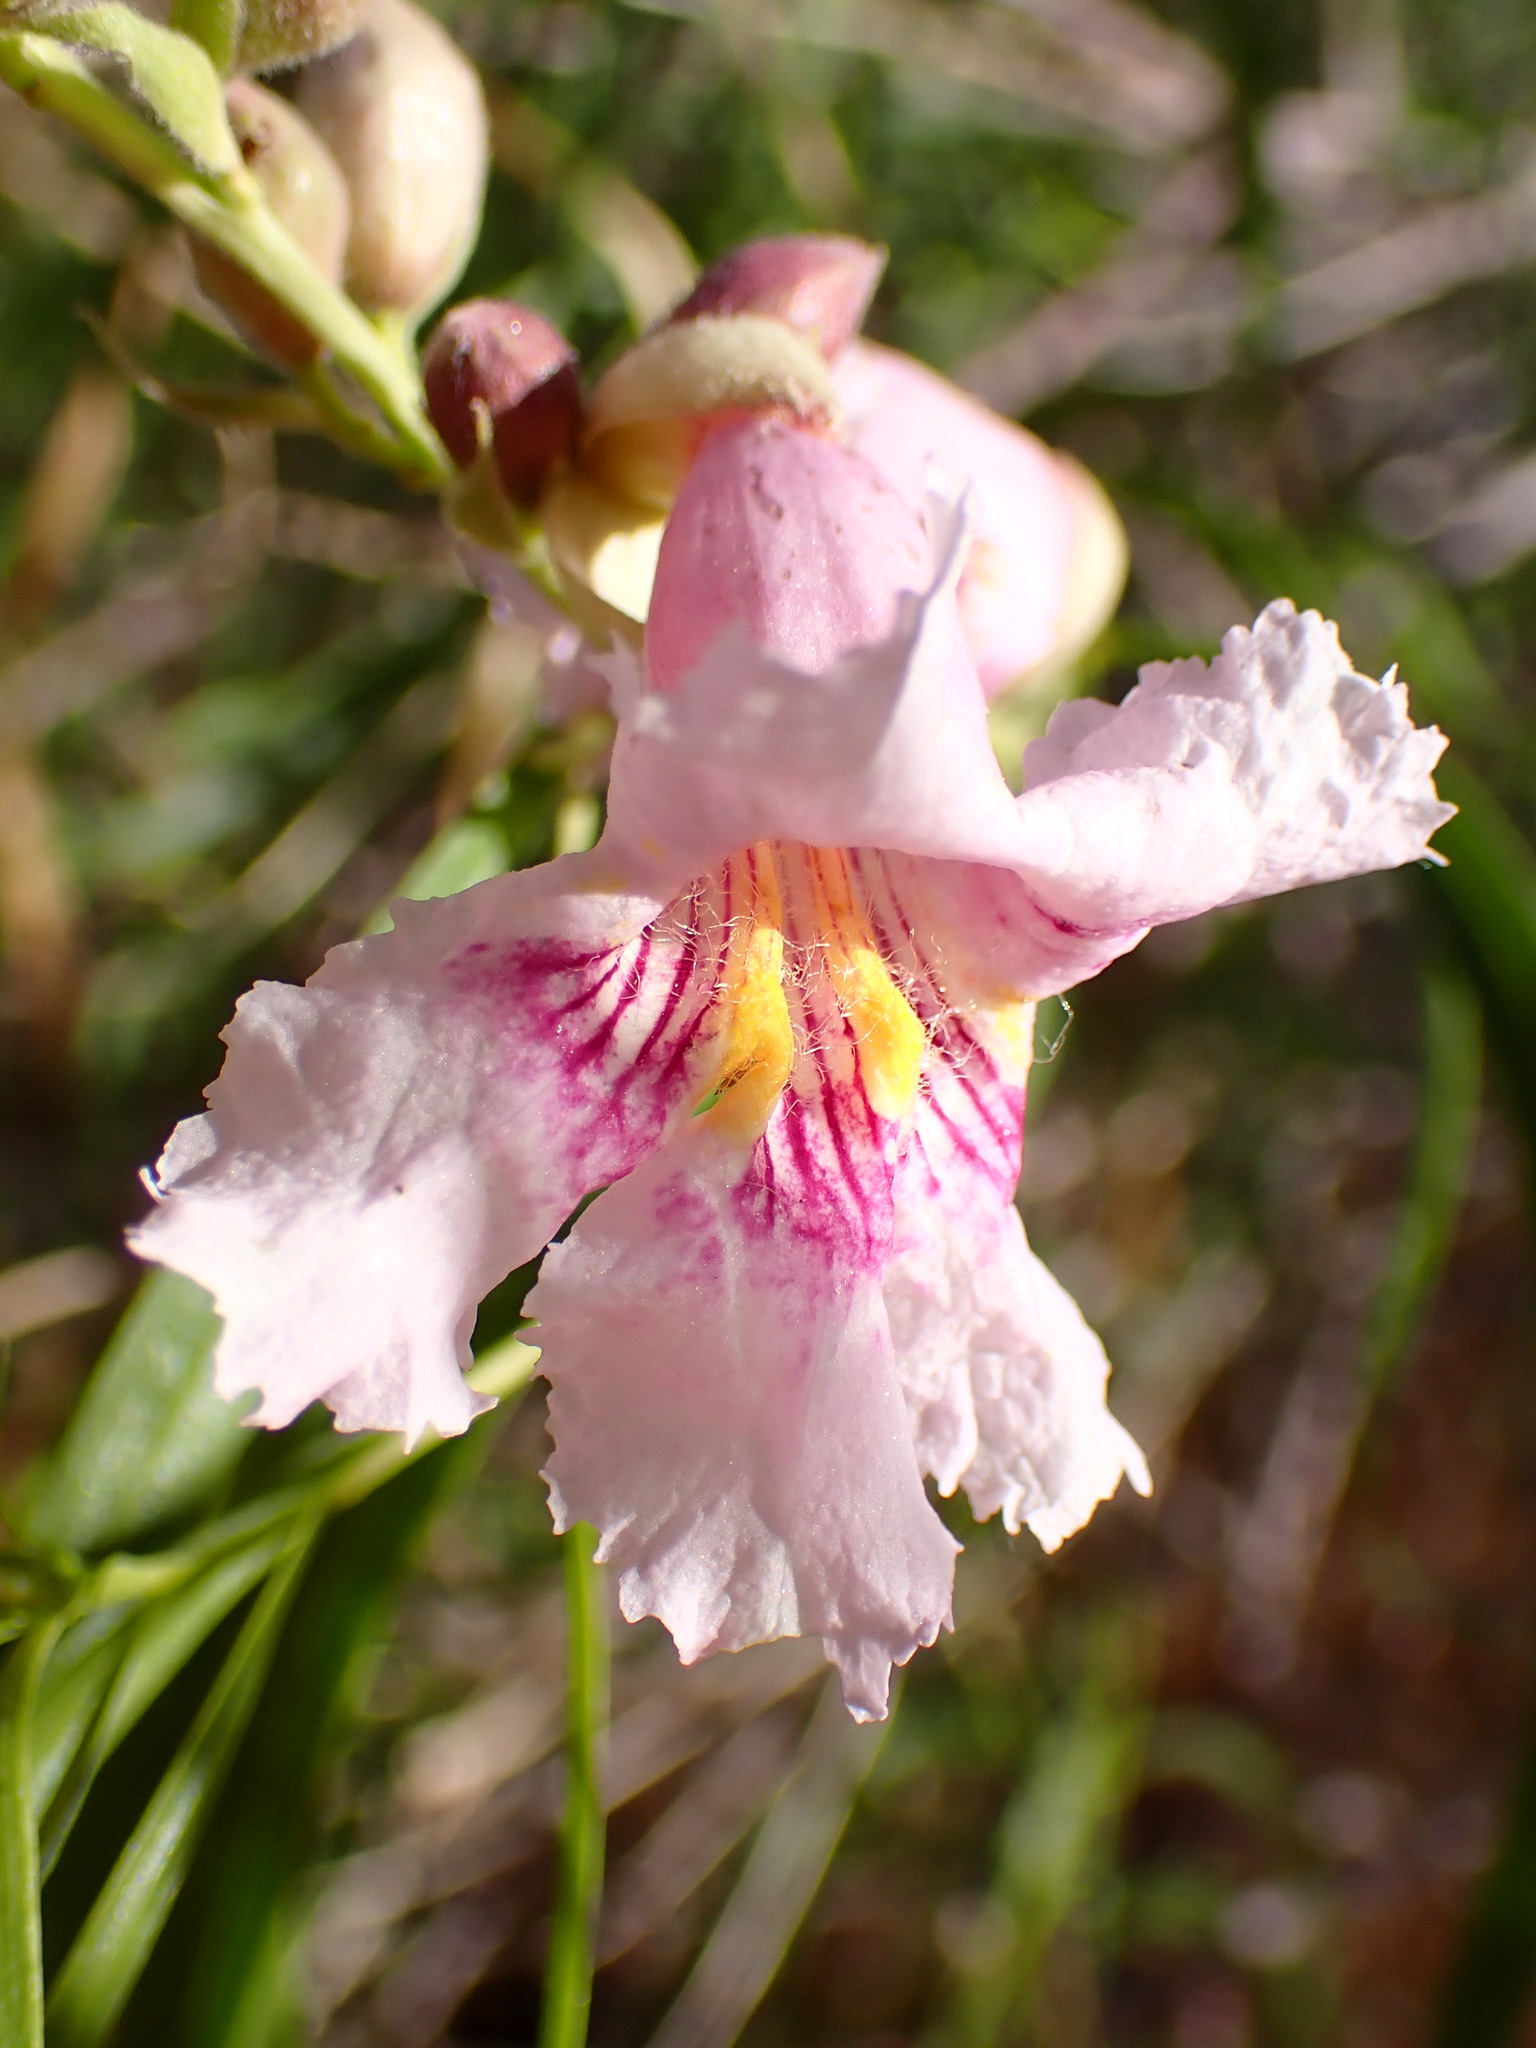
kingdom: Plantae
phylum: Tracheophyta
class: Magnoliopsida
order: Lamiales
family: Bignoniaceae
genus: Chilopsis
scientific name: Chilopsis linearis
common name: Desert-willow
